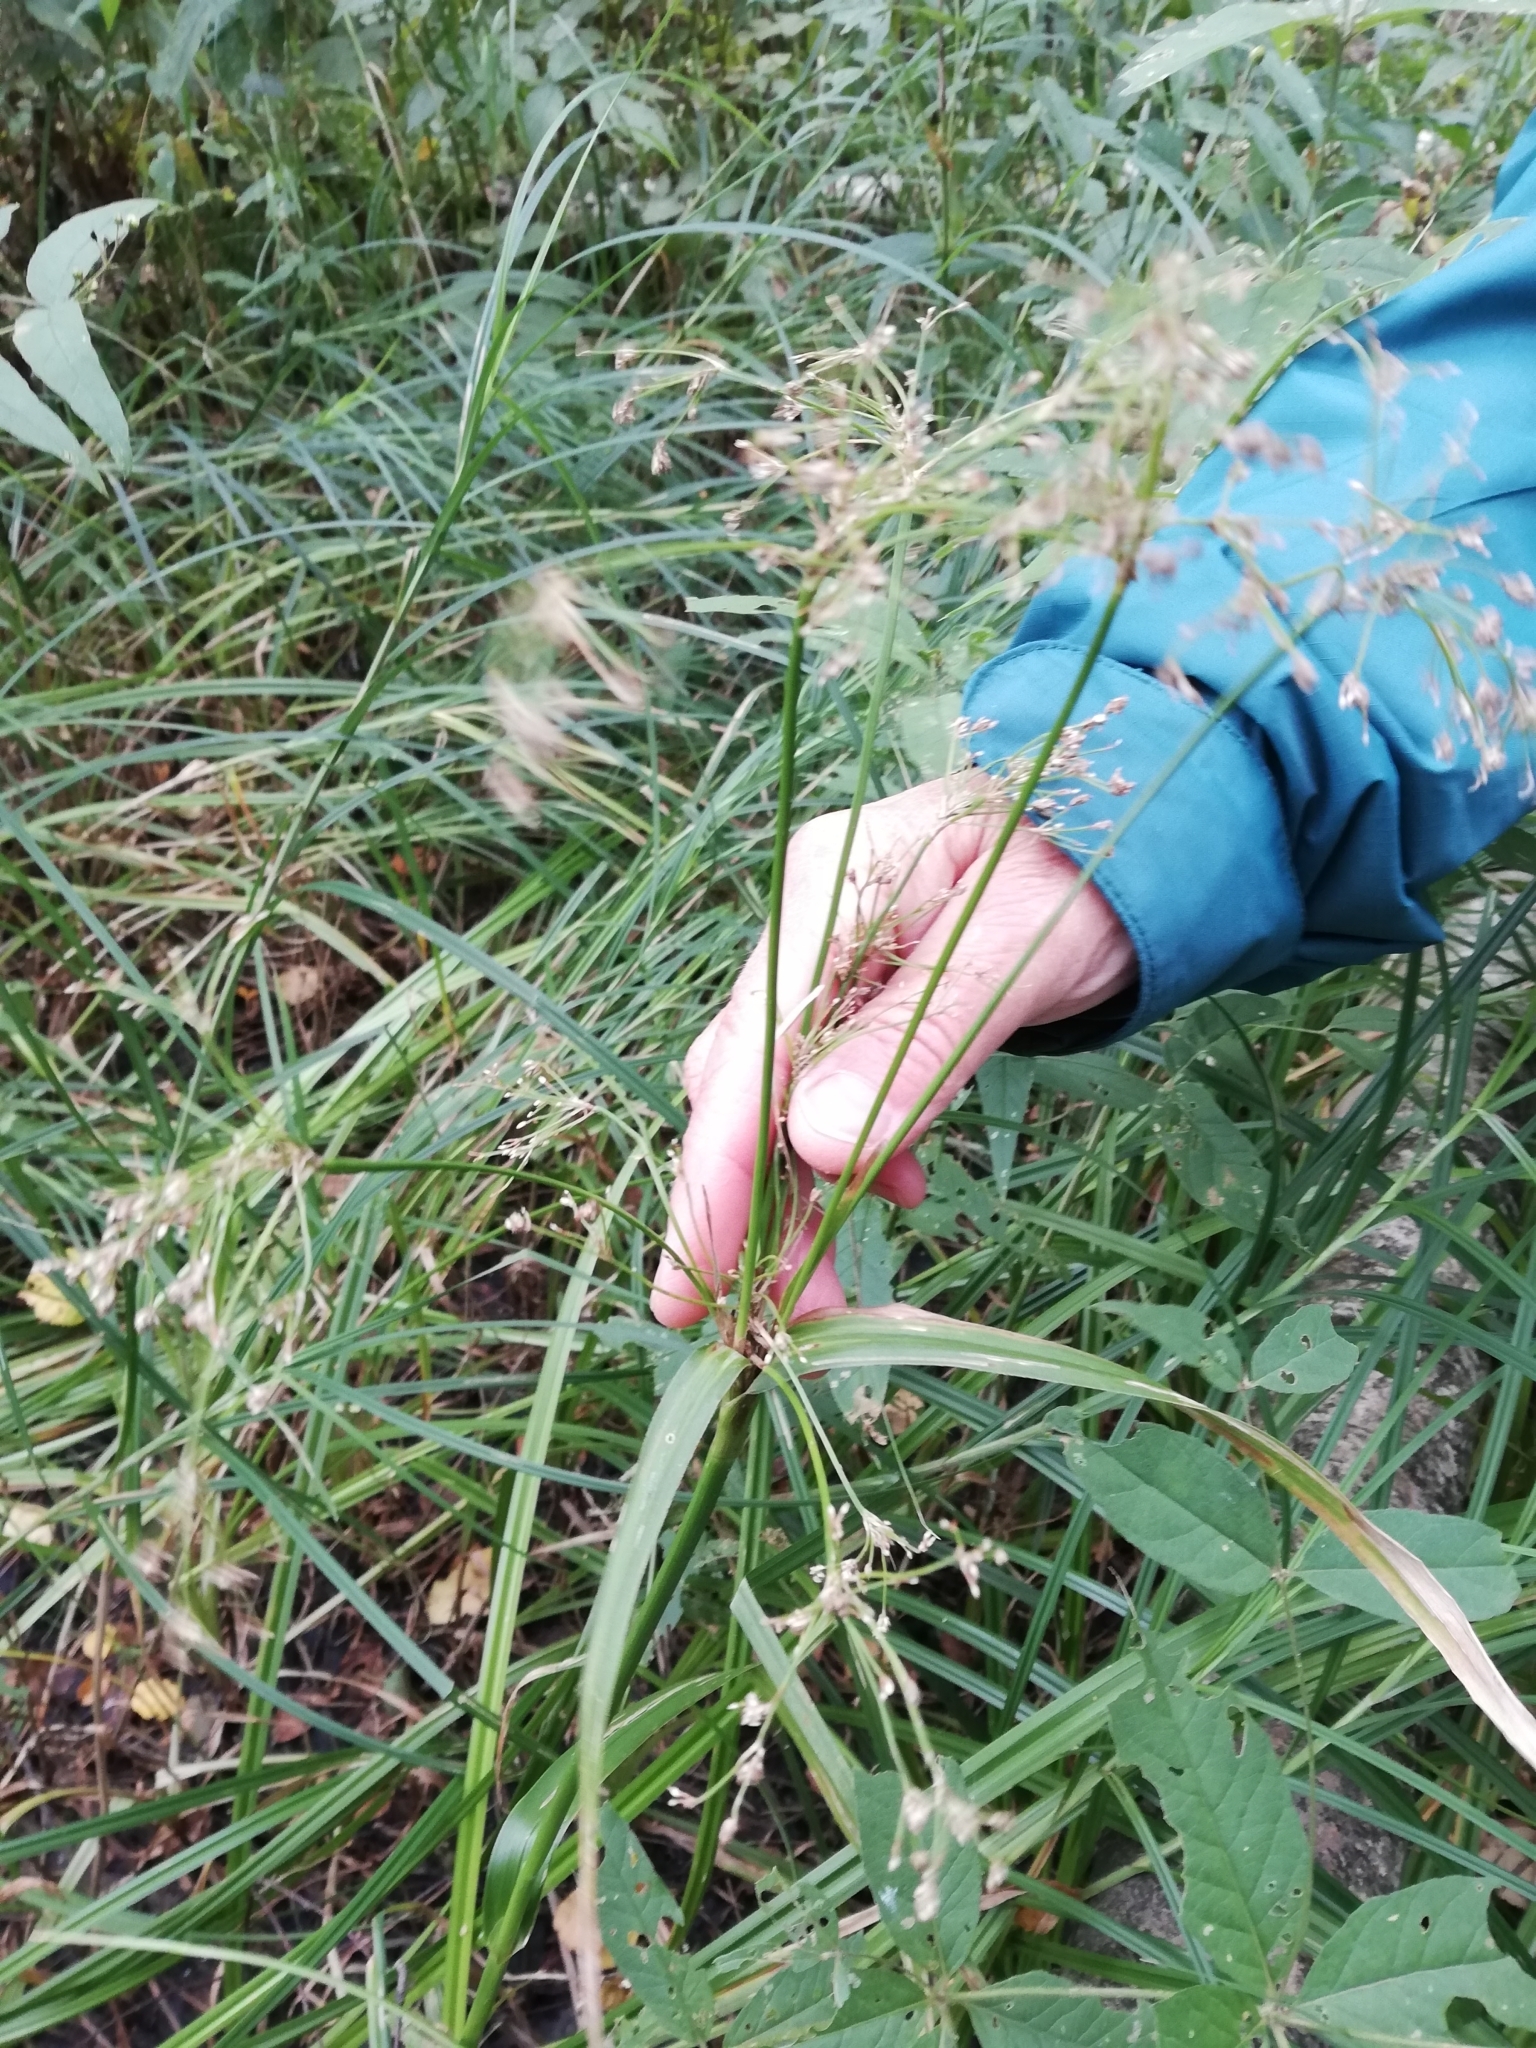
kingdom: Plantae
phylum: Tracheophyta
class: Liliopsida
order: Poales
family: Cyperaceae
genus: Scirpus
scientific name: Scirpus sylvaticus
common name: Wood club-rush
